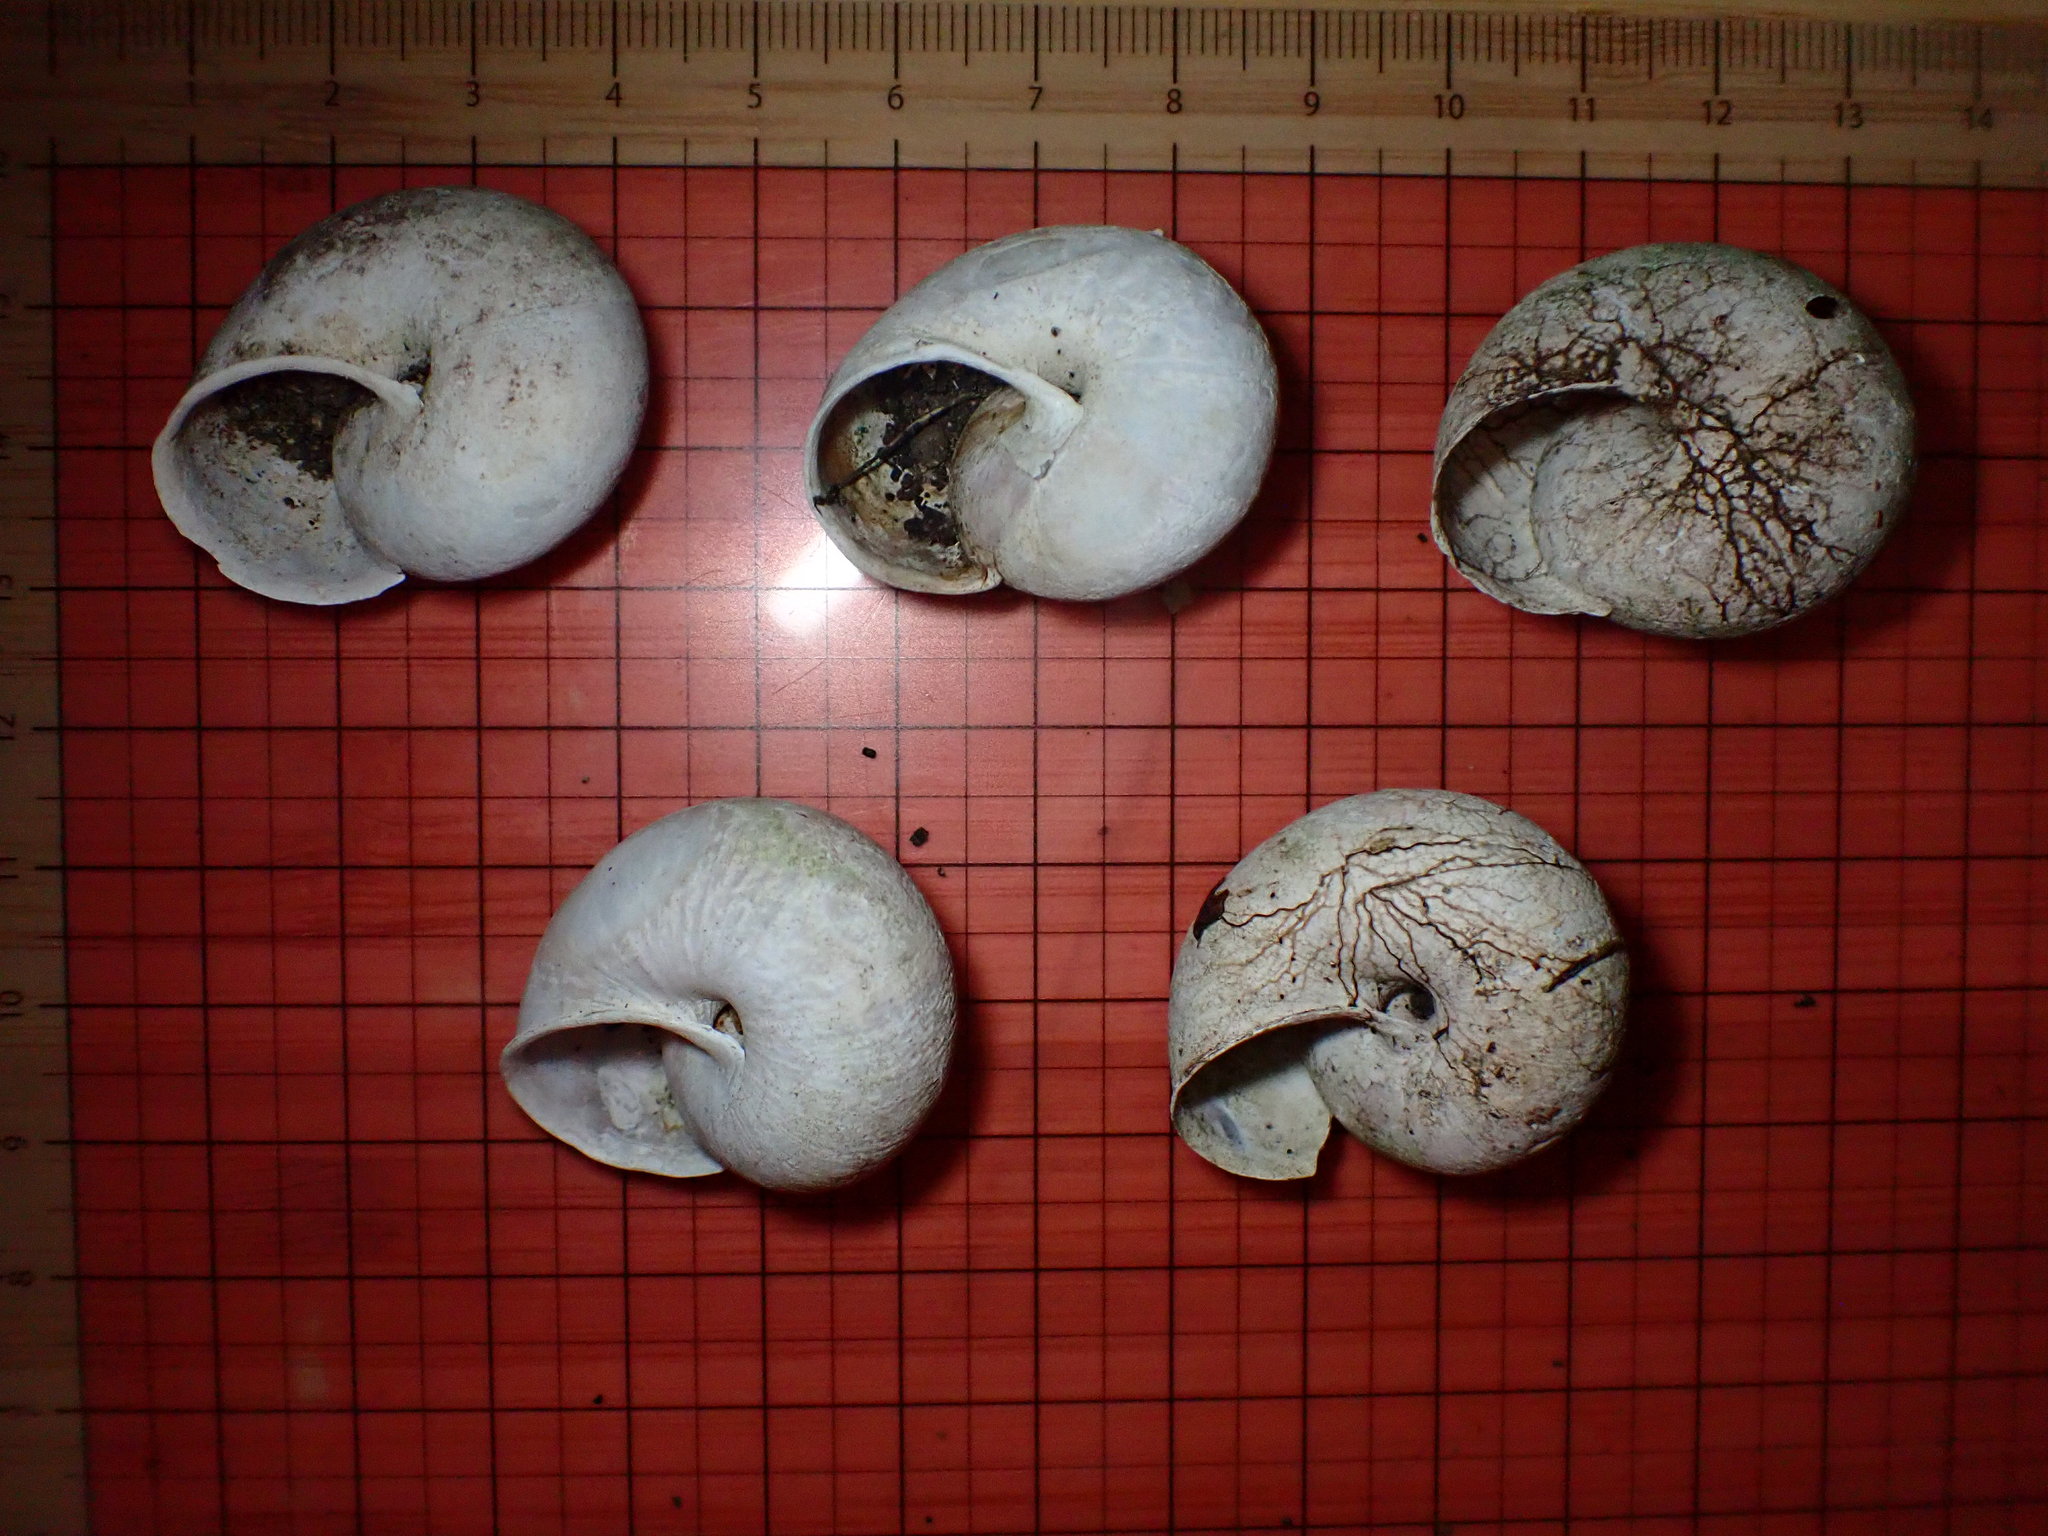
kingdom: Animalia
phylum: Mollusca
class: Gastropoda
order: Stylommatophora
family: Xanthonychidae
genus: Helminthoglypta
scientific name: Helminthoglypta arrosa
